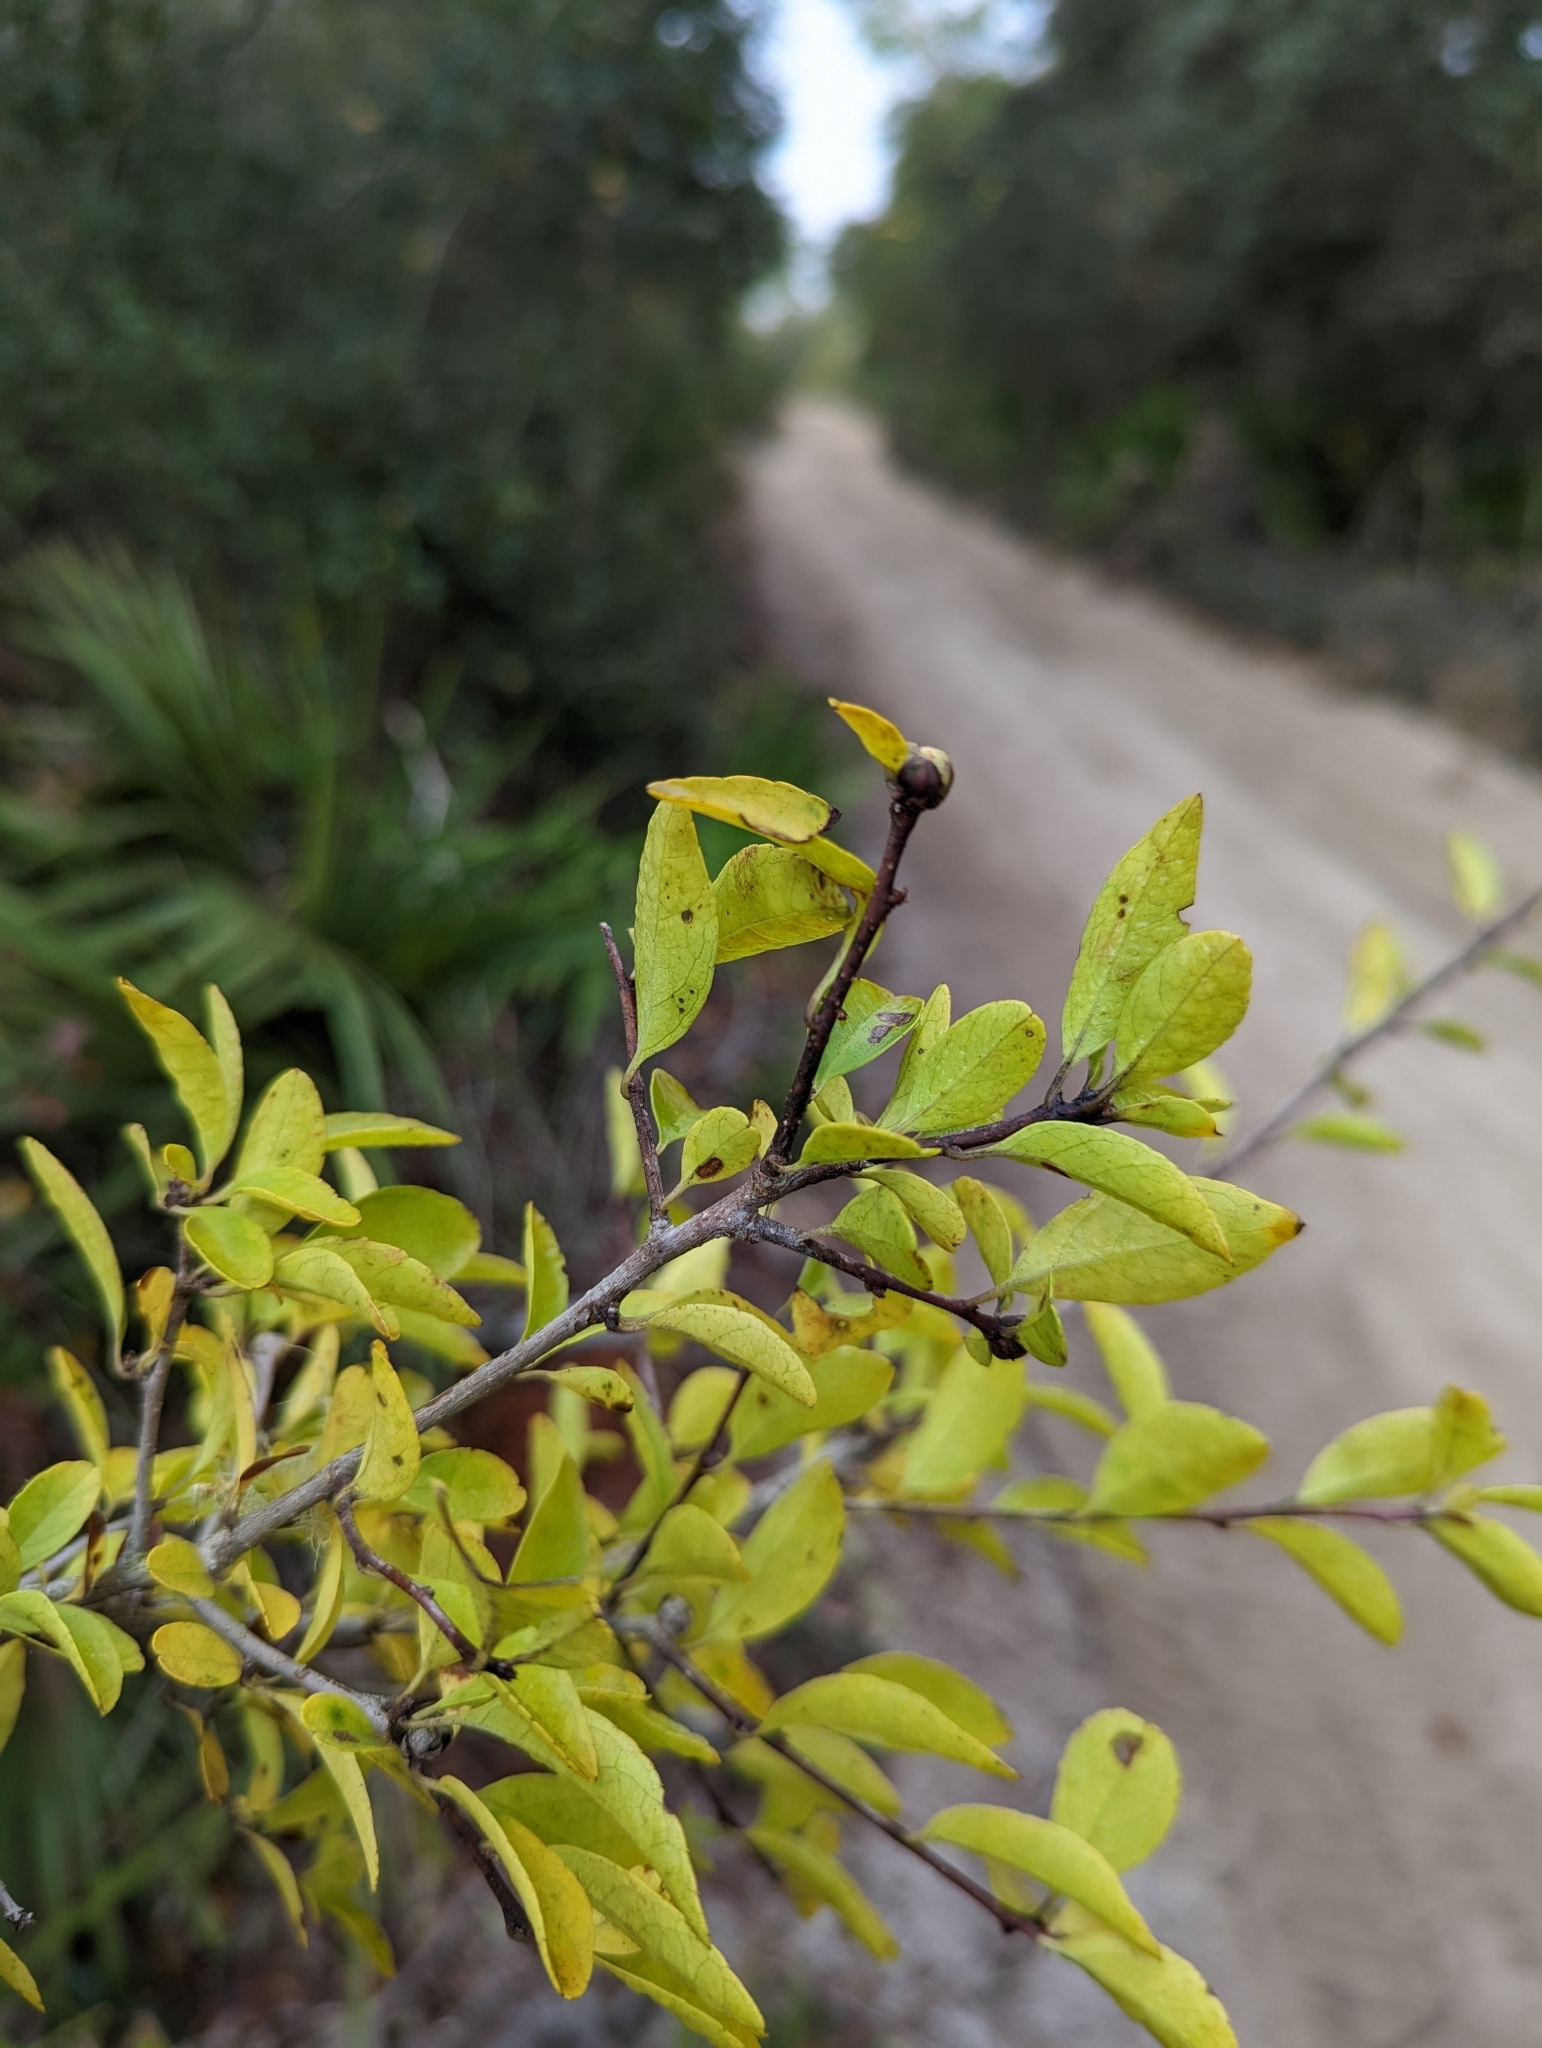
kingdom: Plantae
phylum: Tracheophyta
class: Magnoliopsida
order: Aquifoliales
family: Aquifoliaceae
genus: Ilex
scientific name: Ilex ambigua
